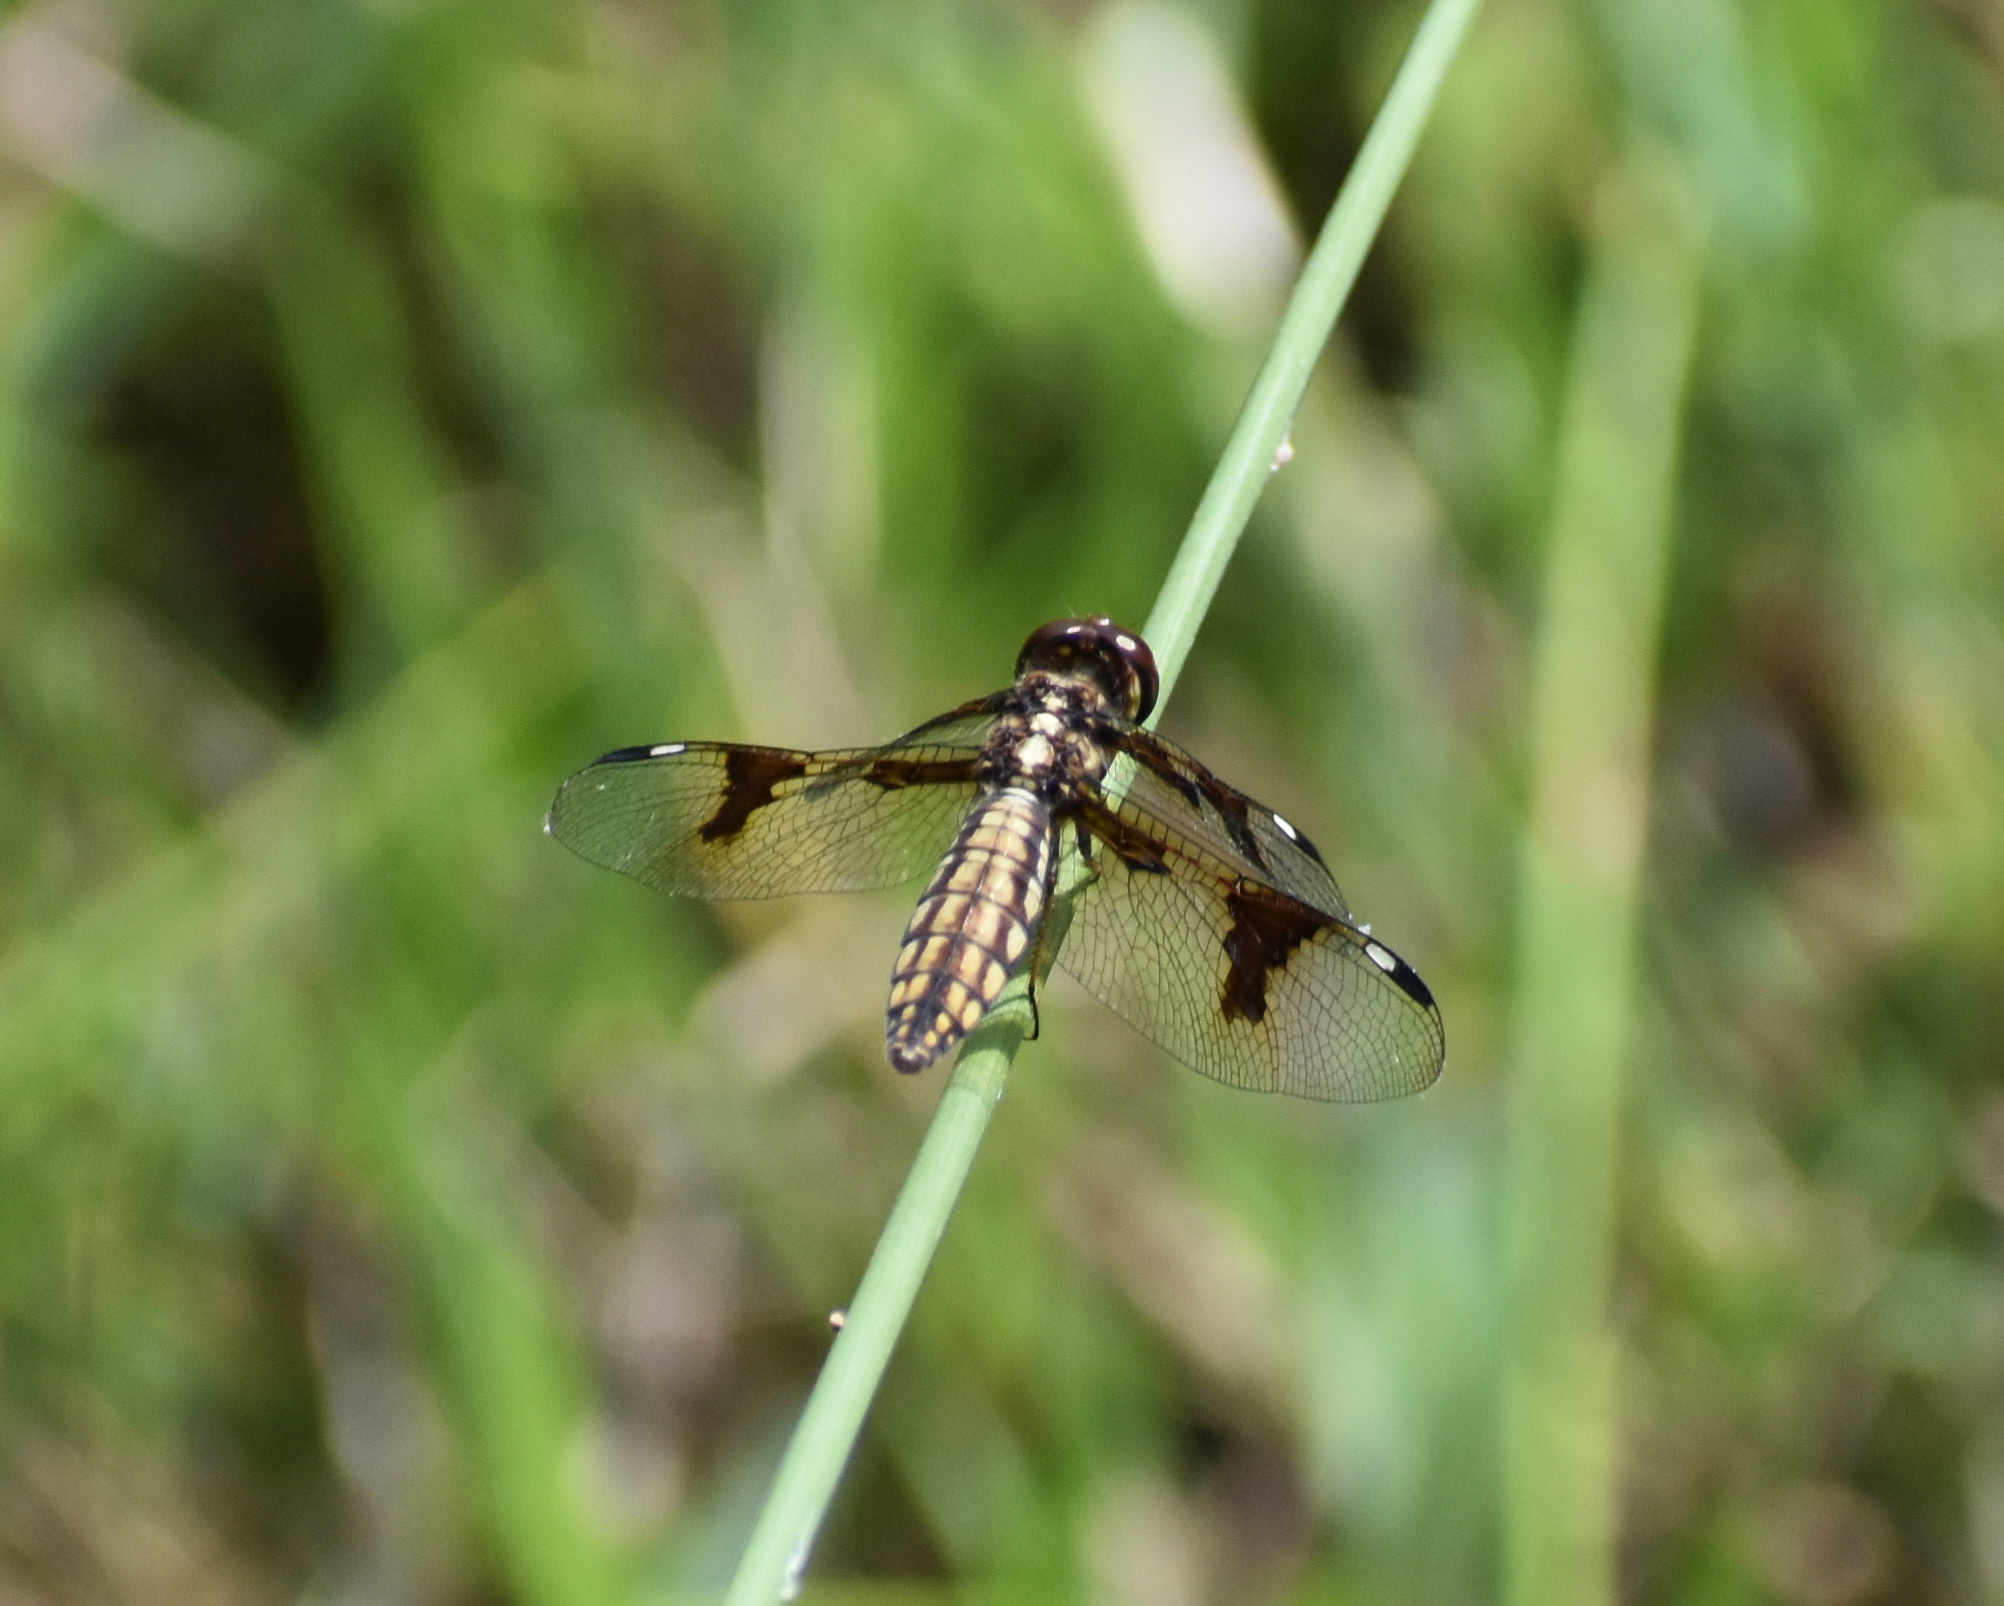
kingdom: Animalia
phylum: Arthropoda
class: Insecta
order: Odonata
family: Libellulidae
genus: Palpopleura
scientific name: Palpopleura lucia
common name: Lucia widow
